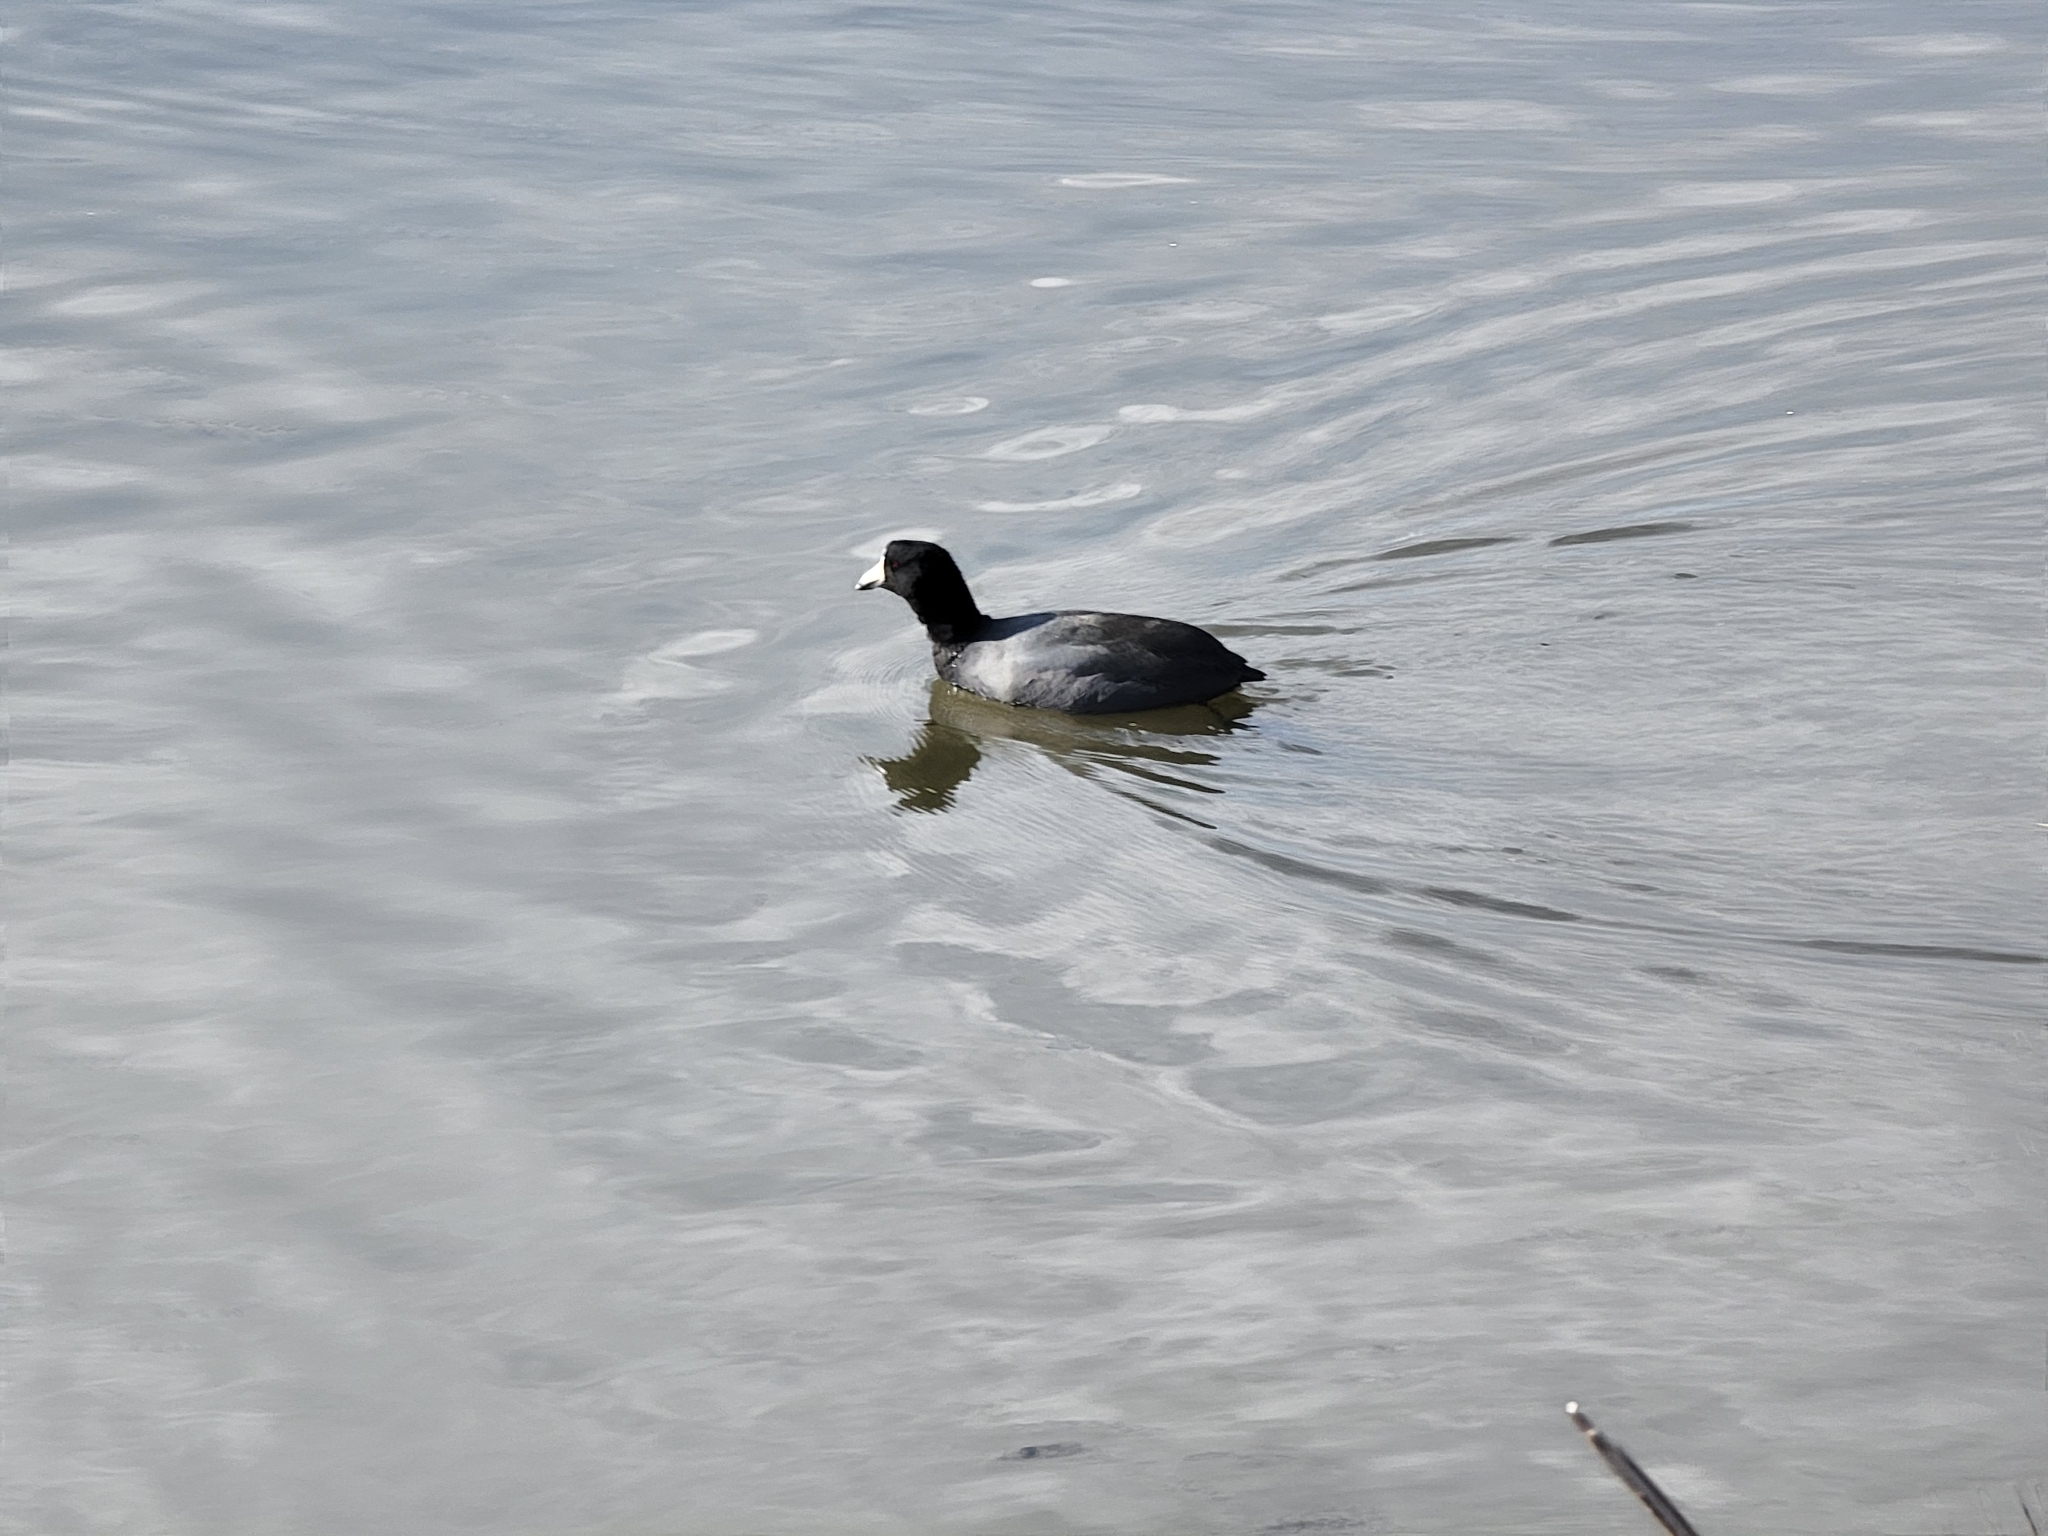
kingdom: Animalia
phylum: Chordata
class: Aves
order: Gruiformes
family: Rallidae
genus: Fulica
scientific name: Fulica americana
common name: American coot
